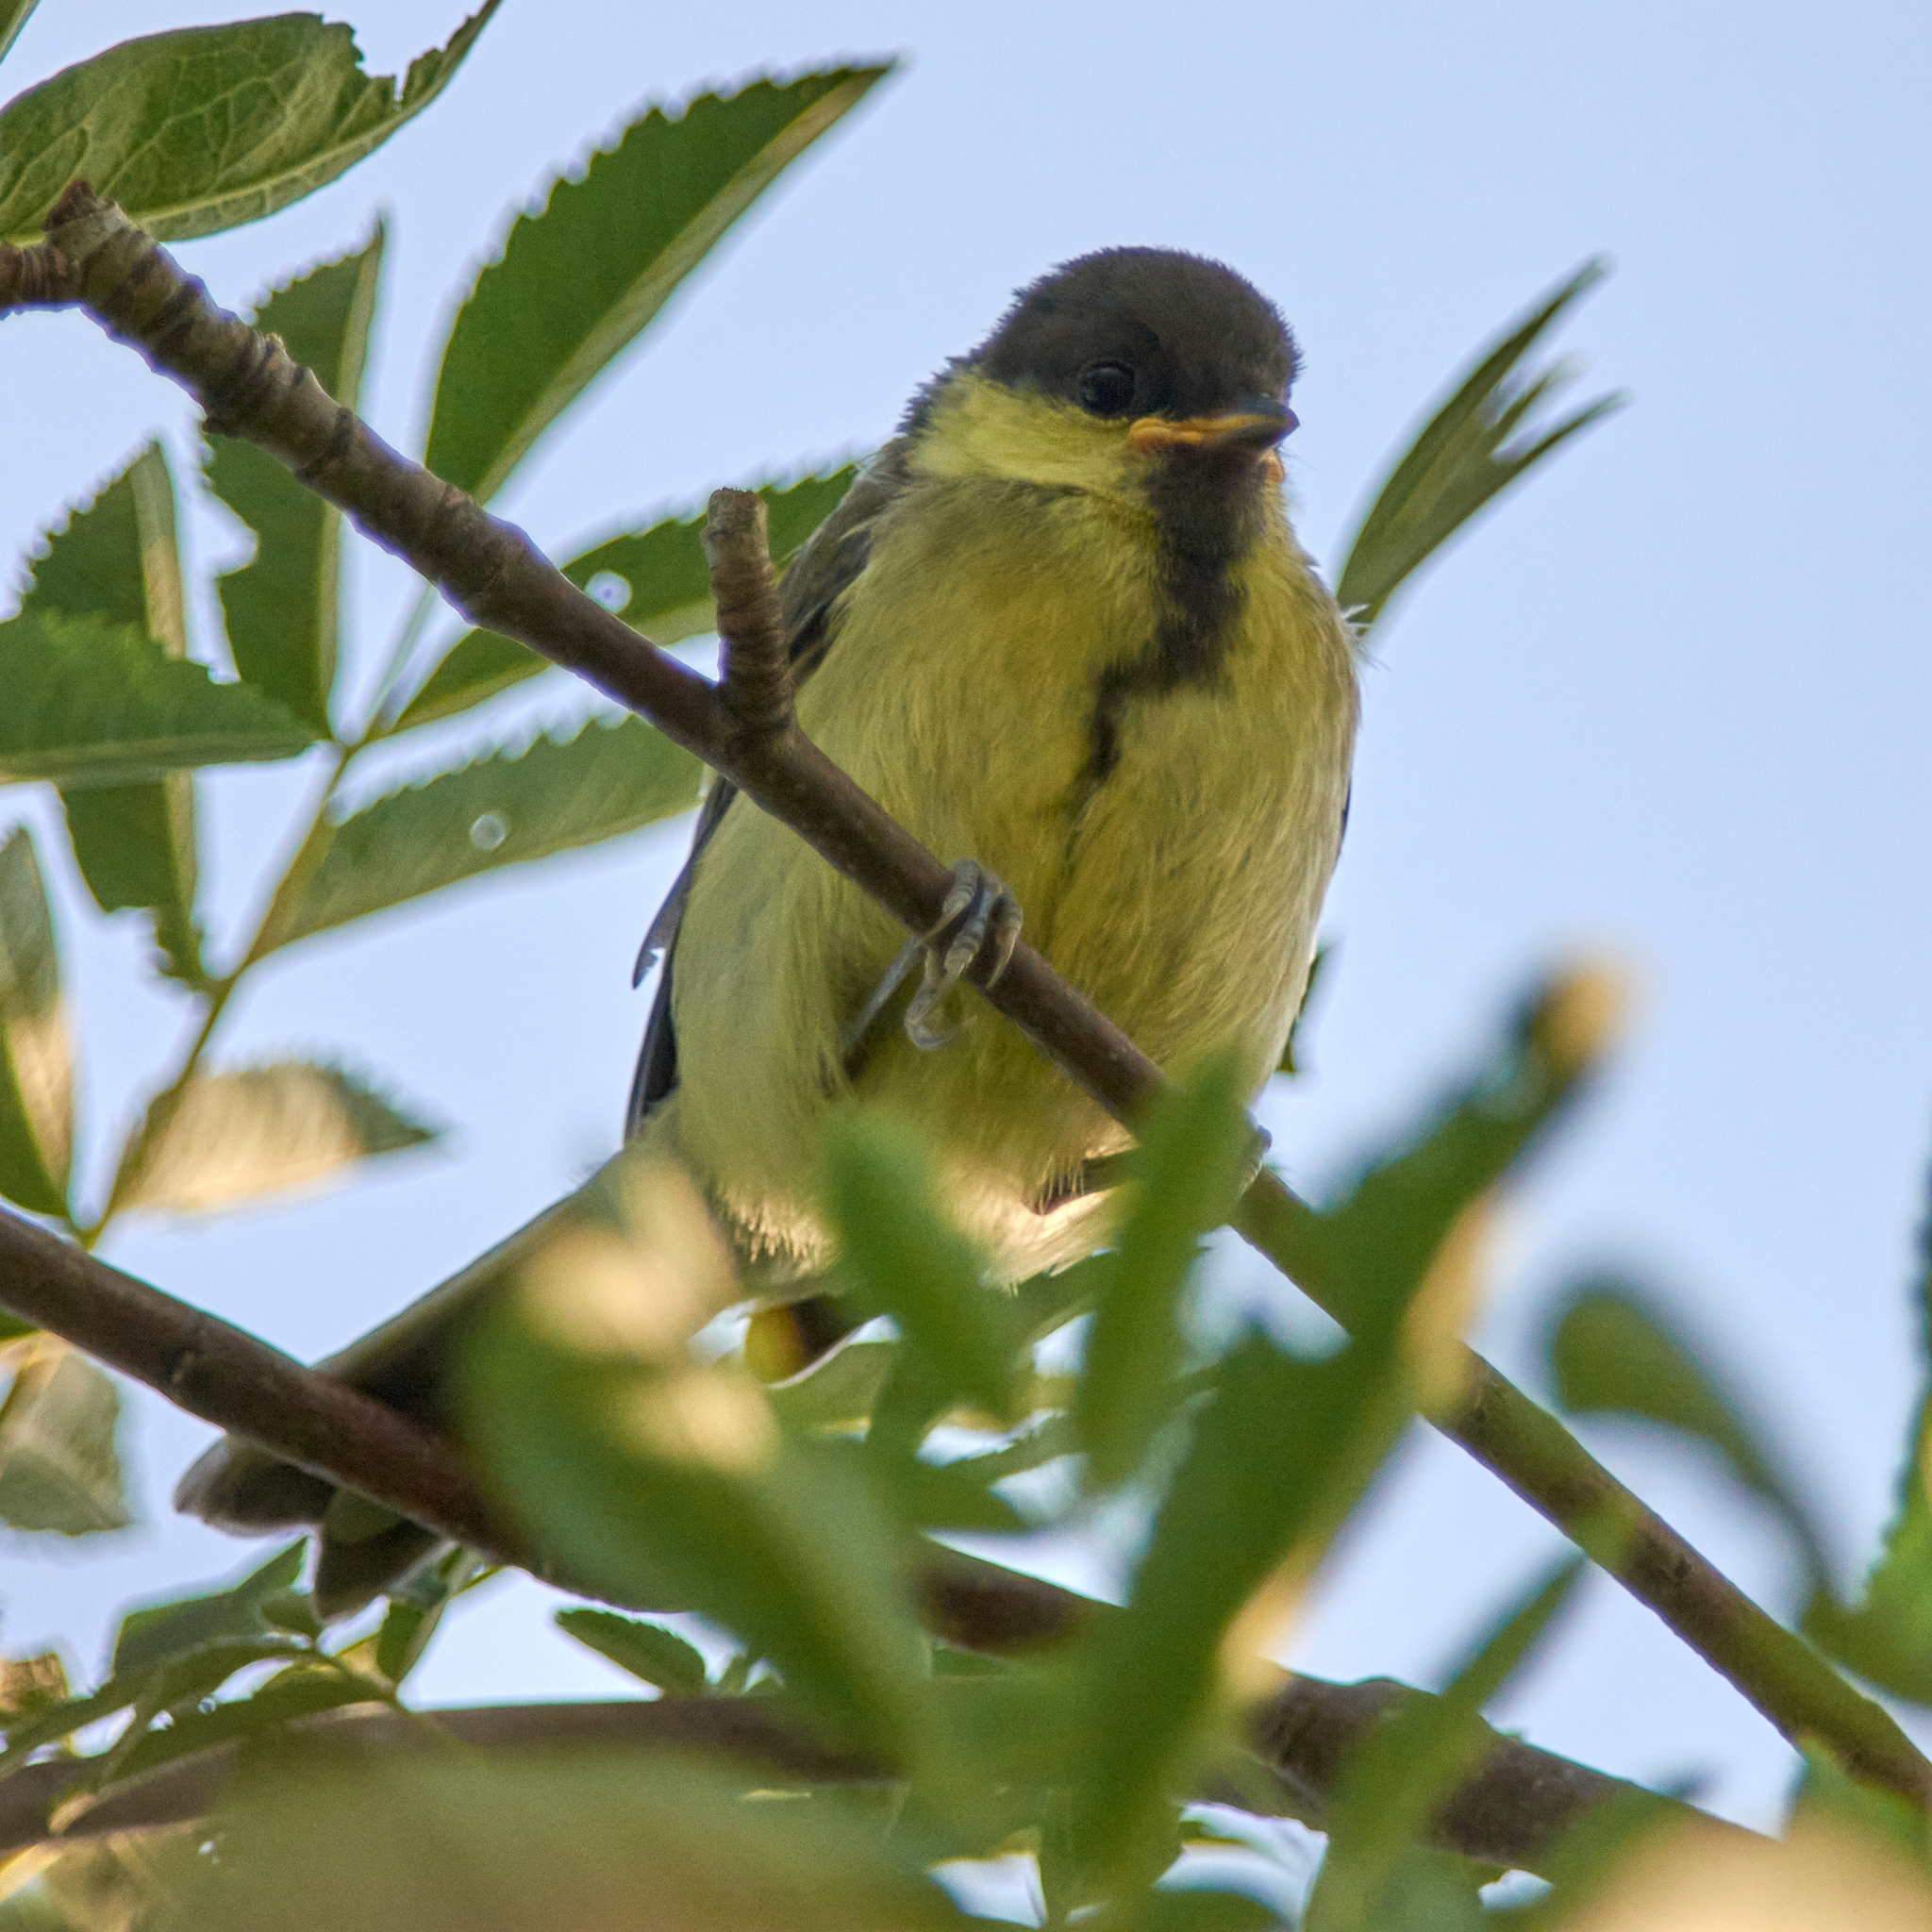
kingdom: Animalia
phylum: Chordata
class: Aves
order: Passeriformes
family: Paridae
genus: Parus
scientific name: Parus major
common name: Great tit
